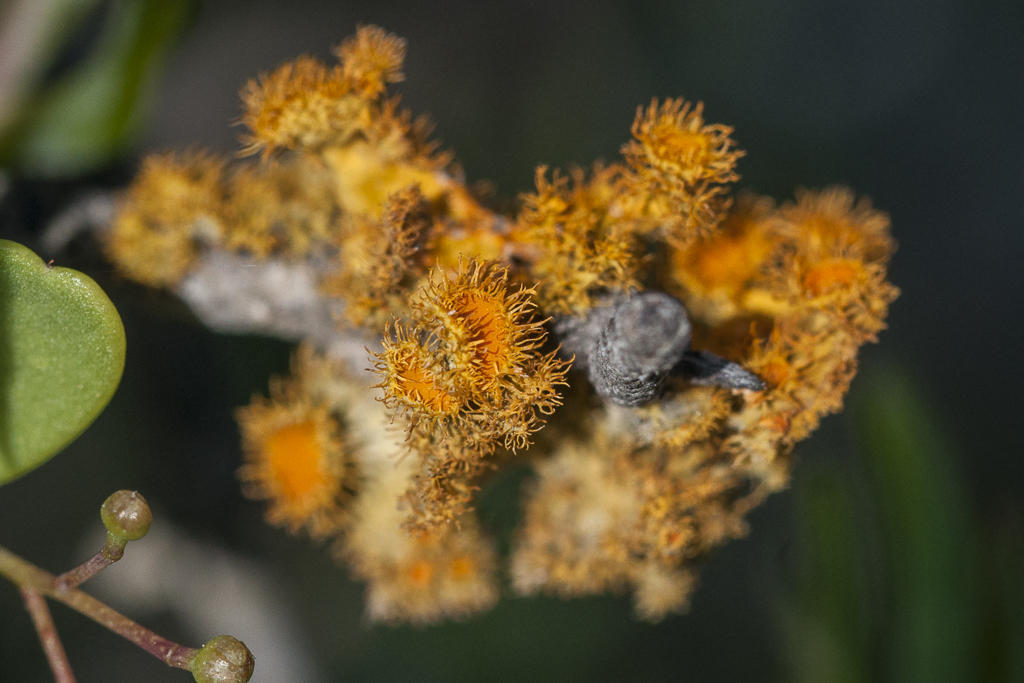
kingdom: Fungi
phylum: Ascomycota
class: Lecanoromycetes
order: Teloschistales
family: Teloschistaceae
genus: Niorma
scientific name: Niorma hypoglauca
